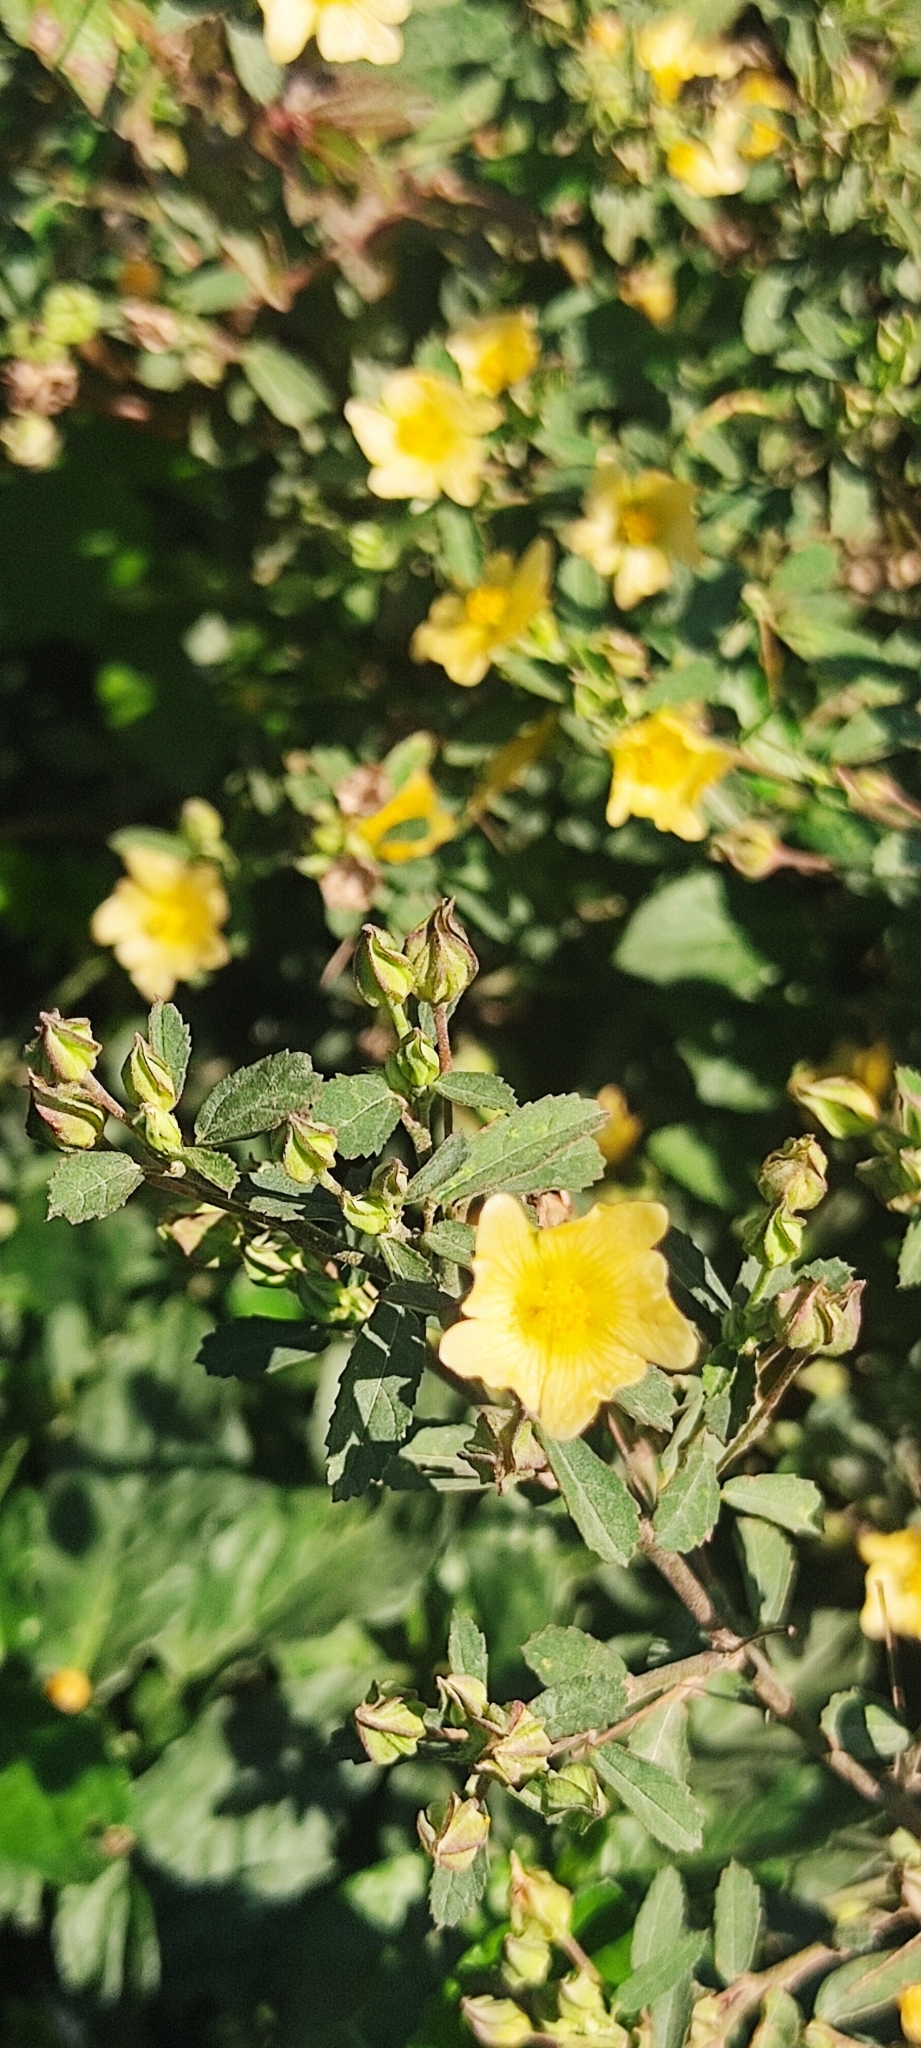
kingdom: Plantae
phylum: Tracheophyta
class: Magnoliopsida
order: Malvales
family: Malvaceae
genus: Sida
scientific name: Sida rhombifolia
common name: Queensland-hemp
